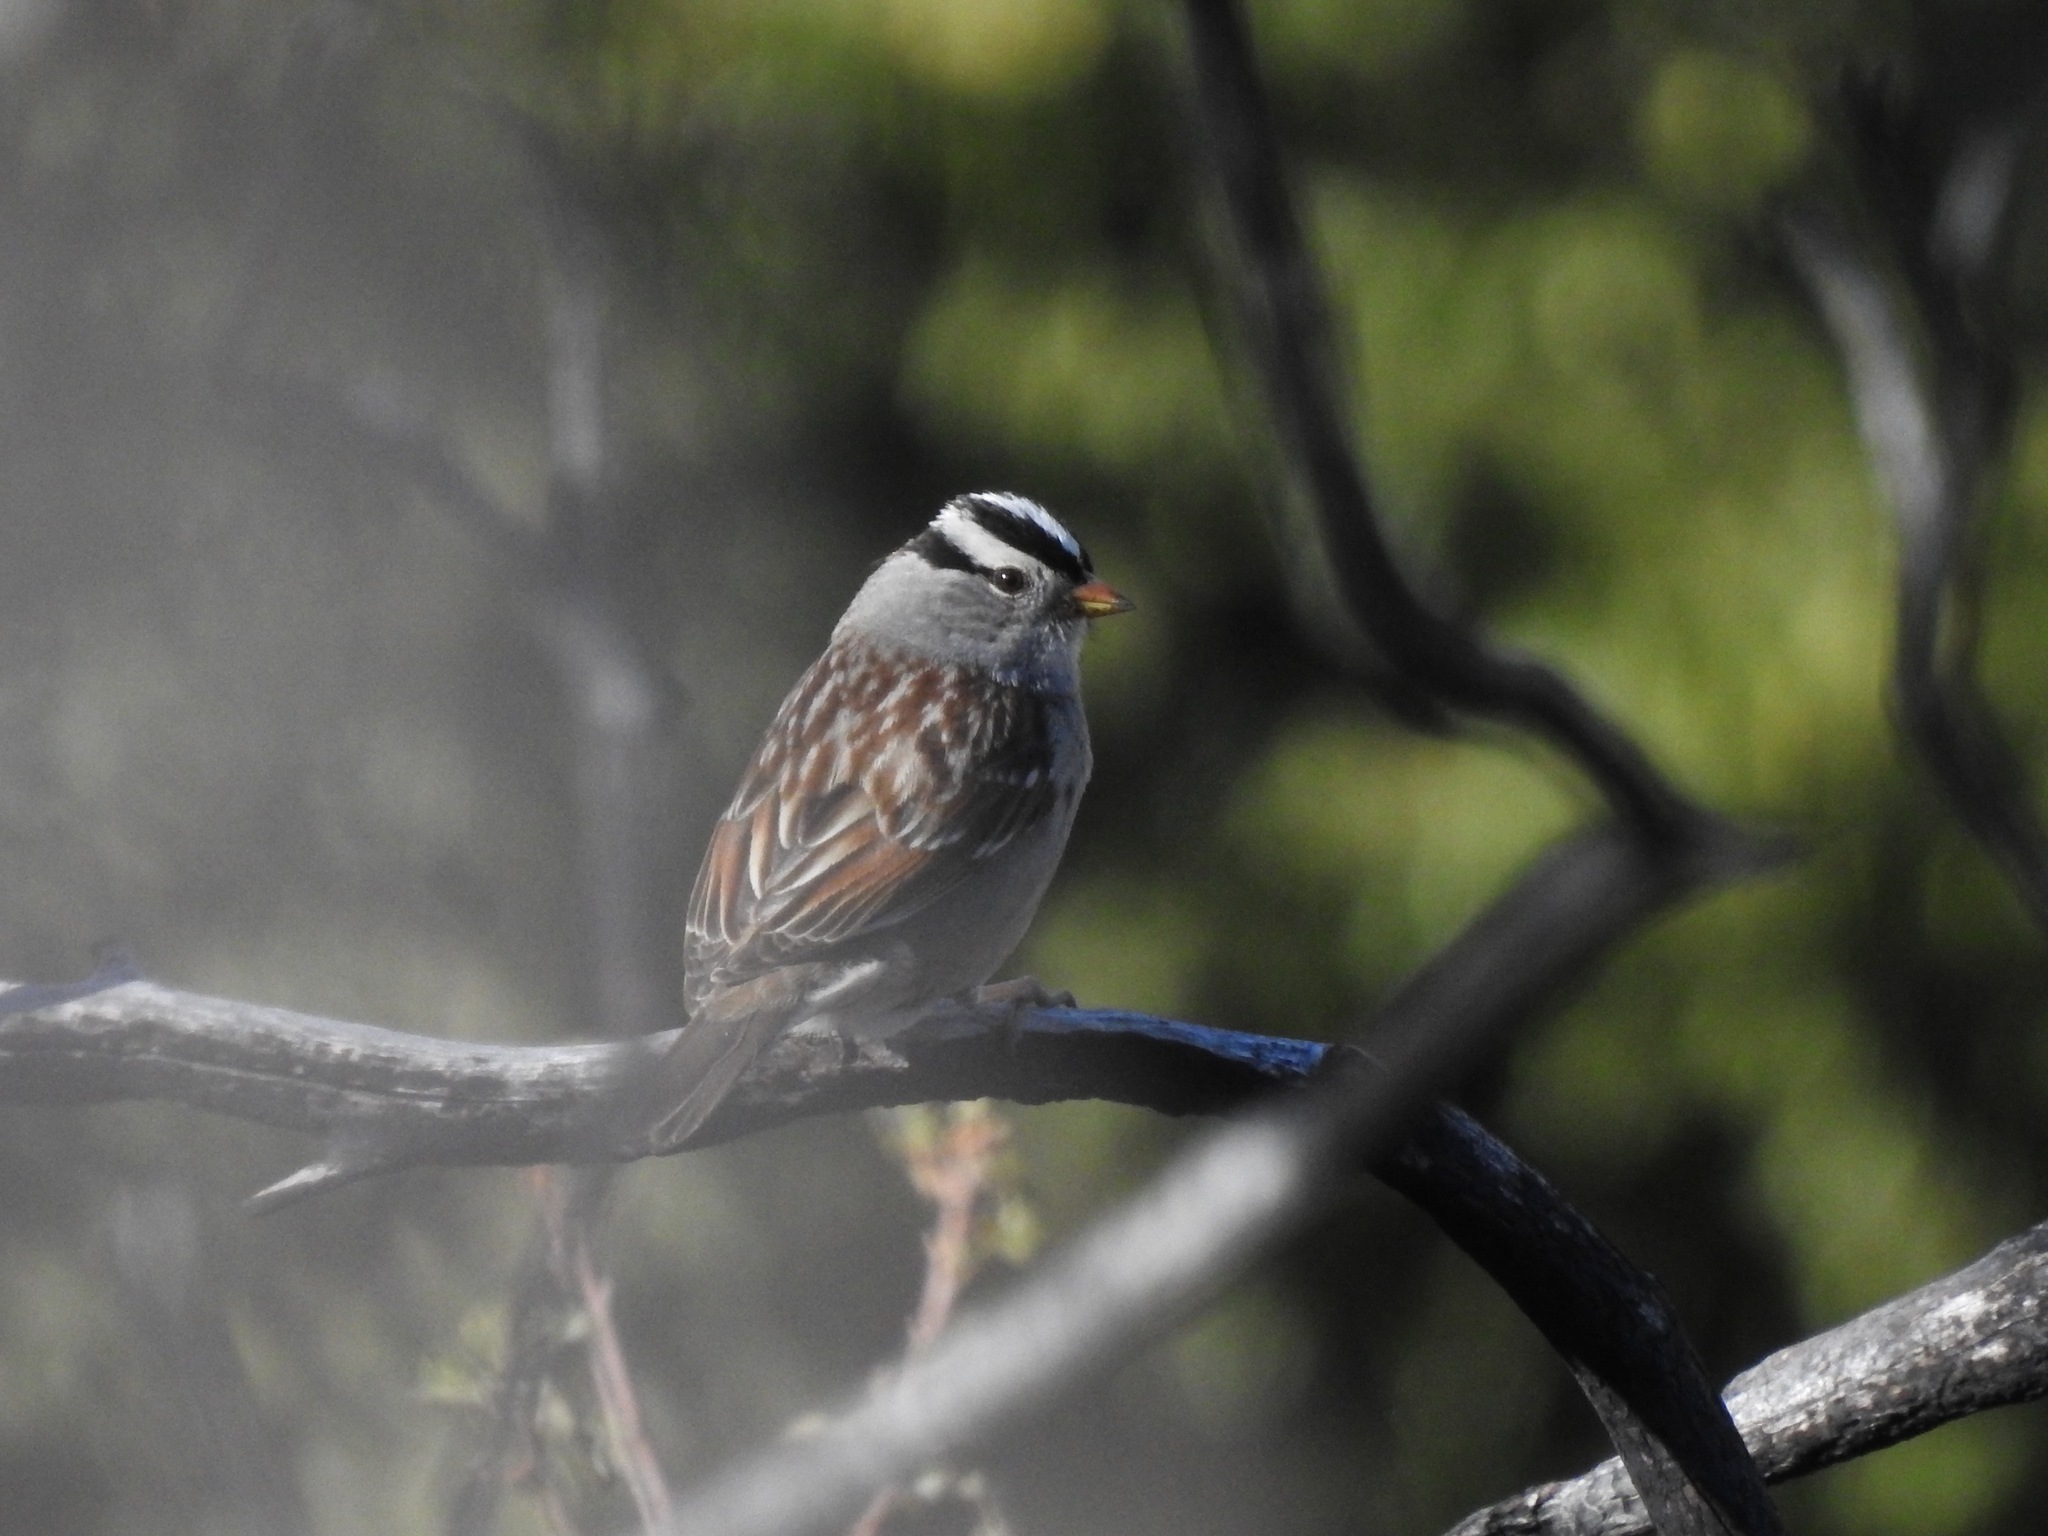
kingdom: Animalia
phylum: Chordata
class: Aves
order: Passeriformes
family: Passerellidae
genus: Zonotrichia
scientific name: Zonotrichia leucophrys
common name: White-crowned sparrow
